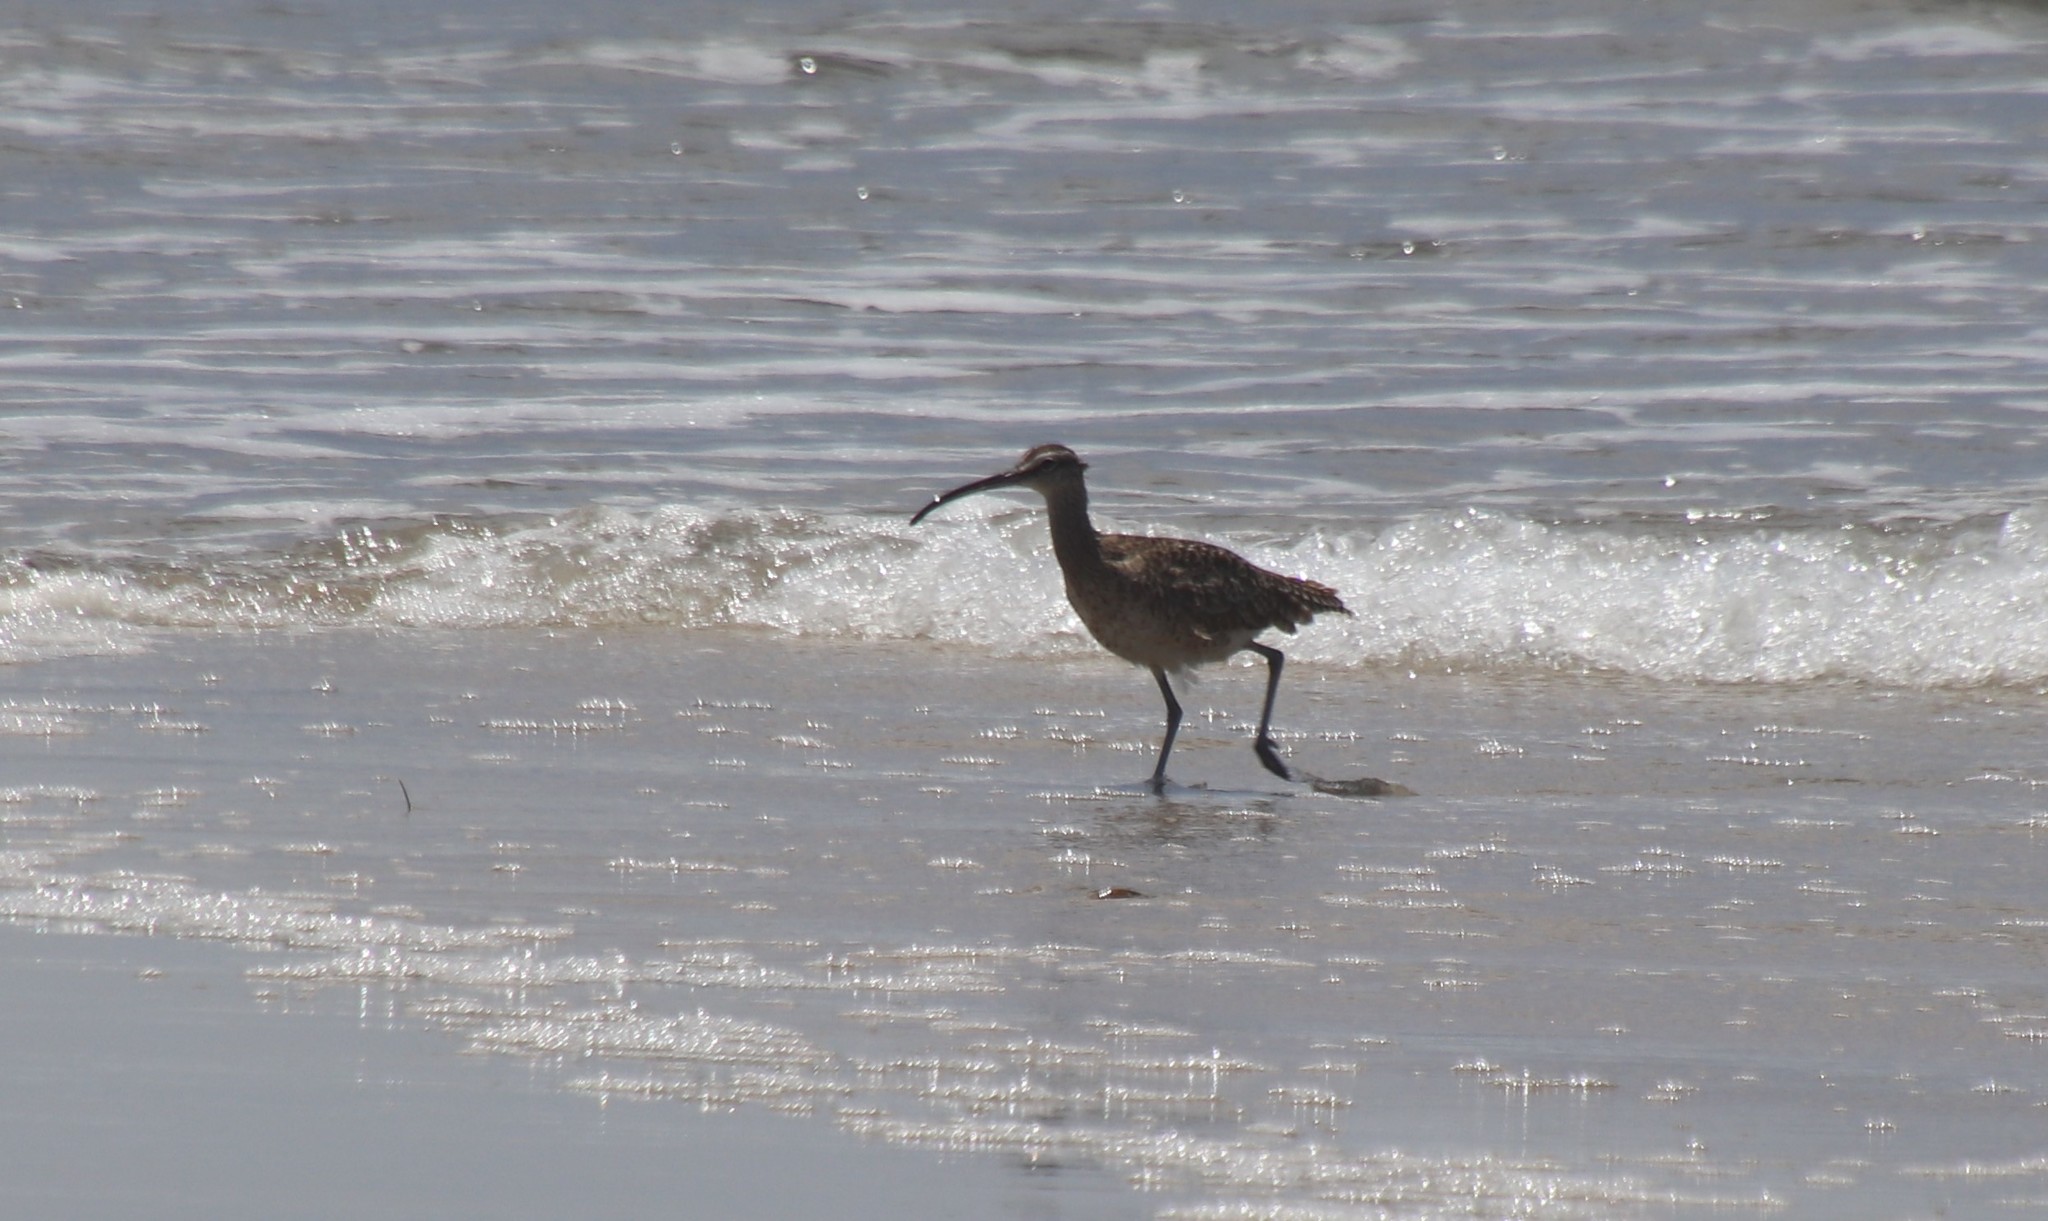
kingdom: Animalia
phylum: Chordata
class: Aves
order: Charadriiformes
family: Scolopacidae
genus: Numenius
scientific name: Numenius phaeopus
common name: Whimbrel
